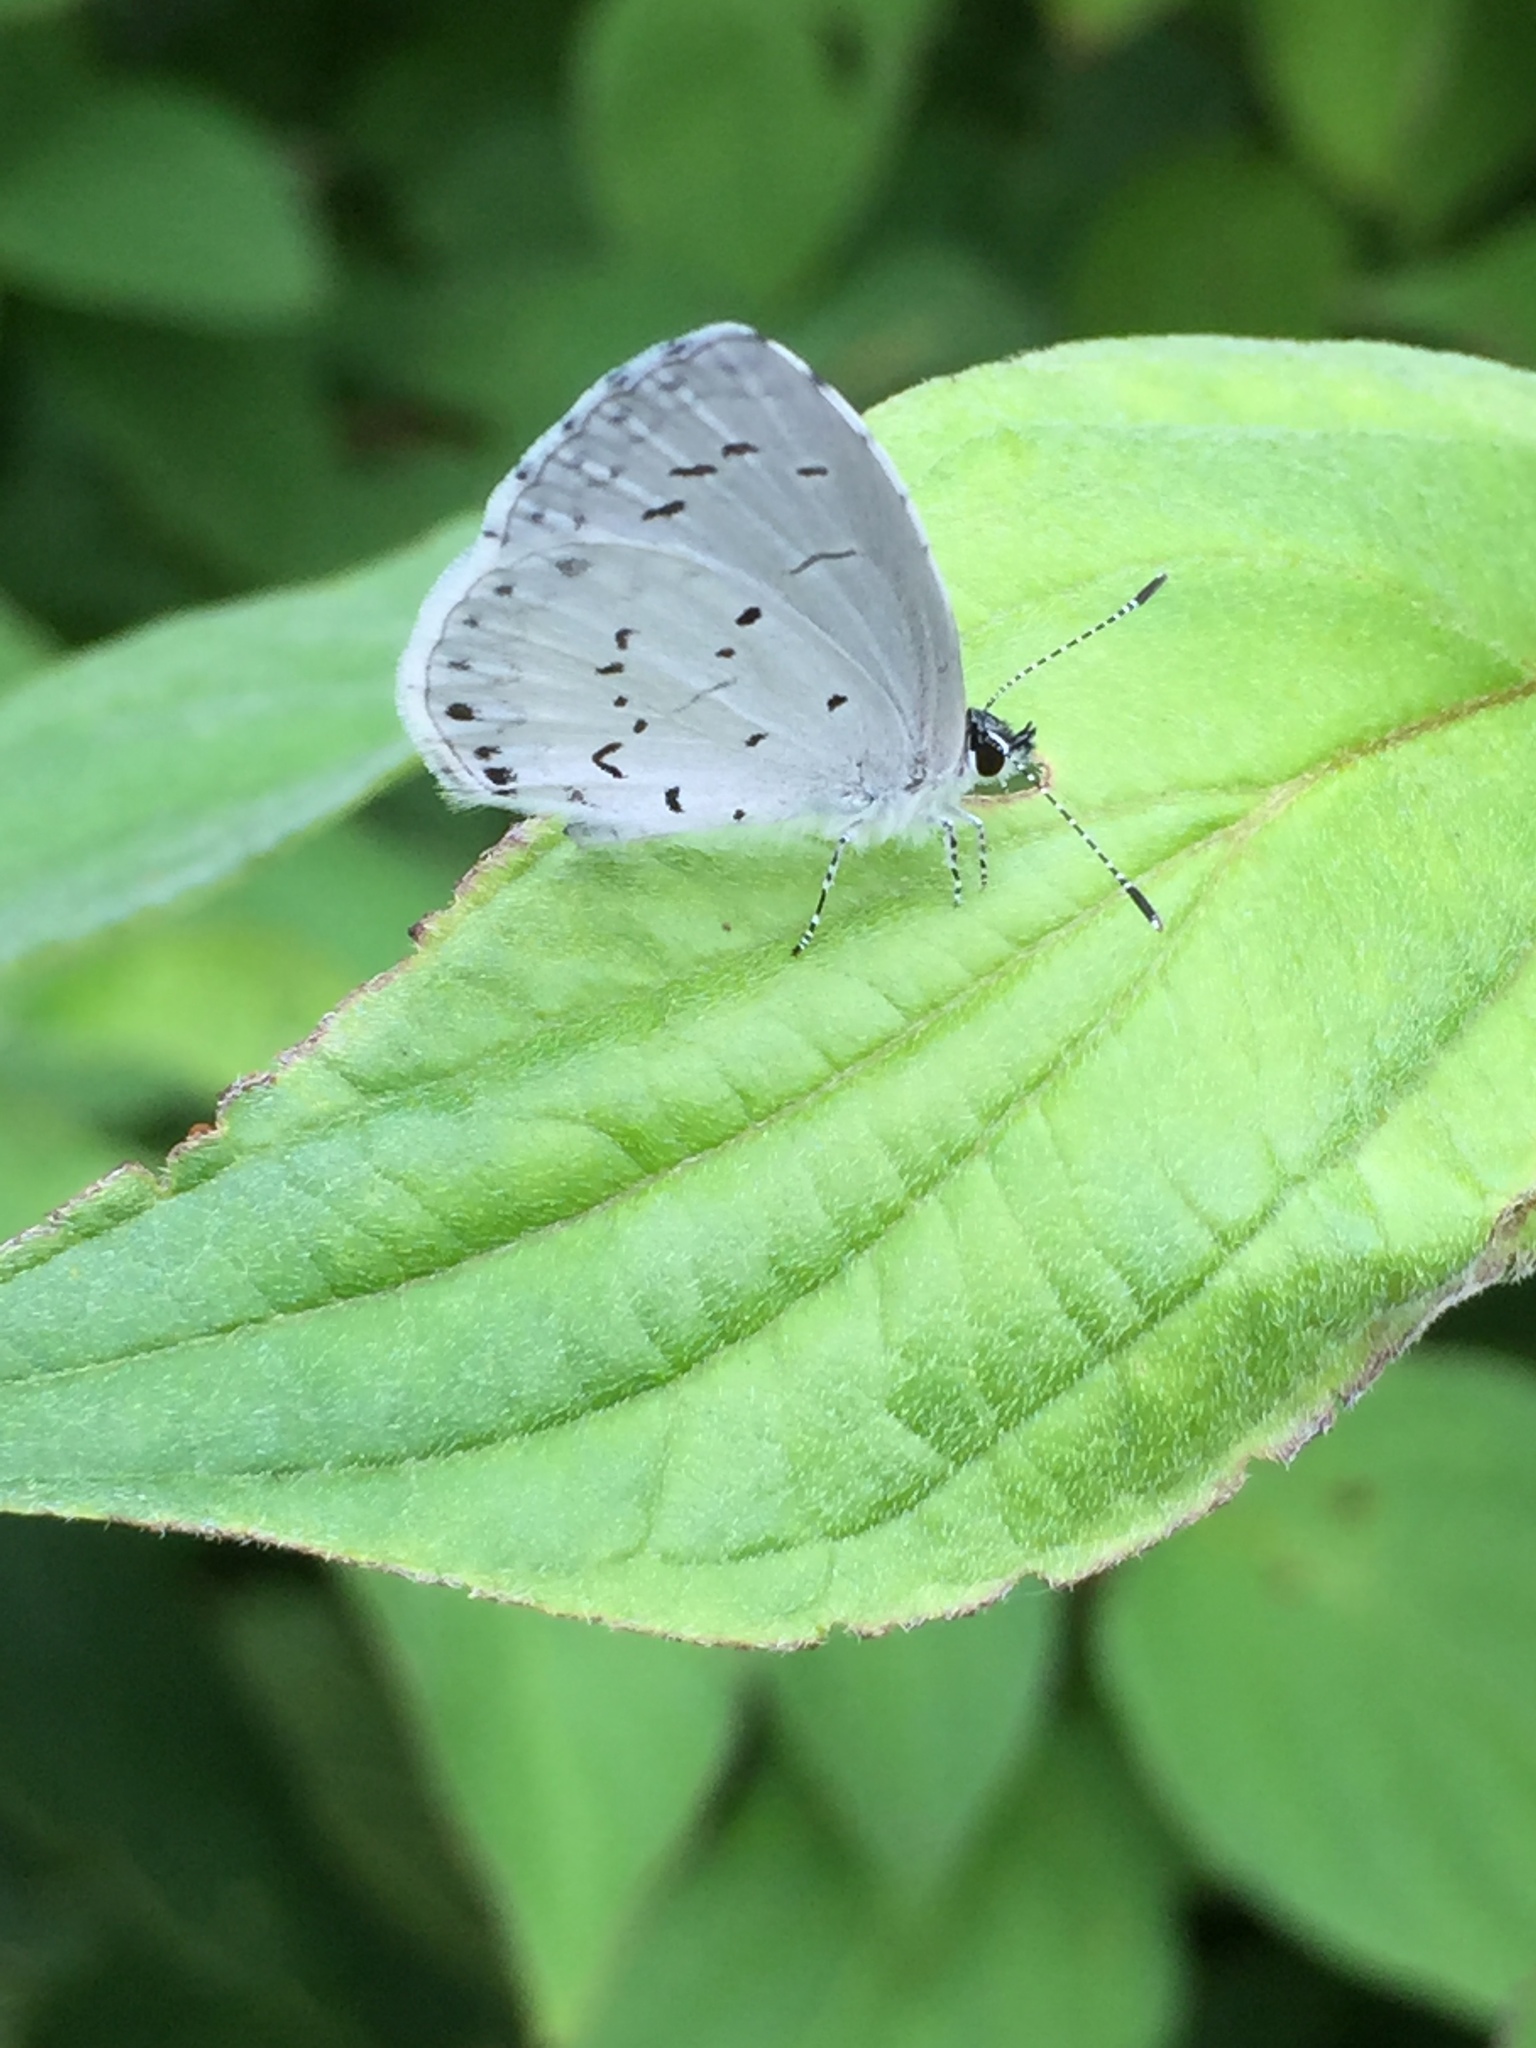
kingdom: Animalia
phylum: Arthropoda
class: Insecta
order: Lepidoptera
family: Lycaenidae
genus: Cyaniris
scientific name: Cyaniris neglecta
